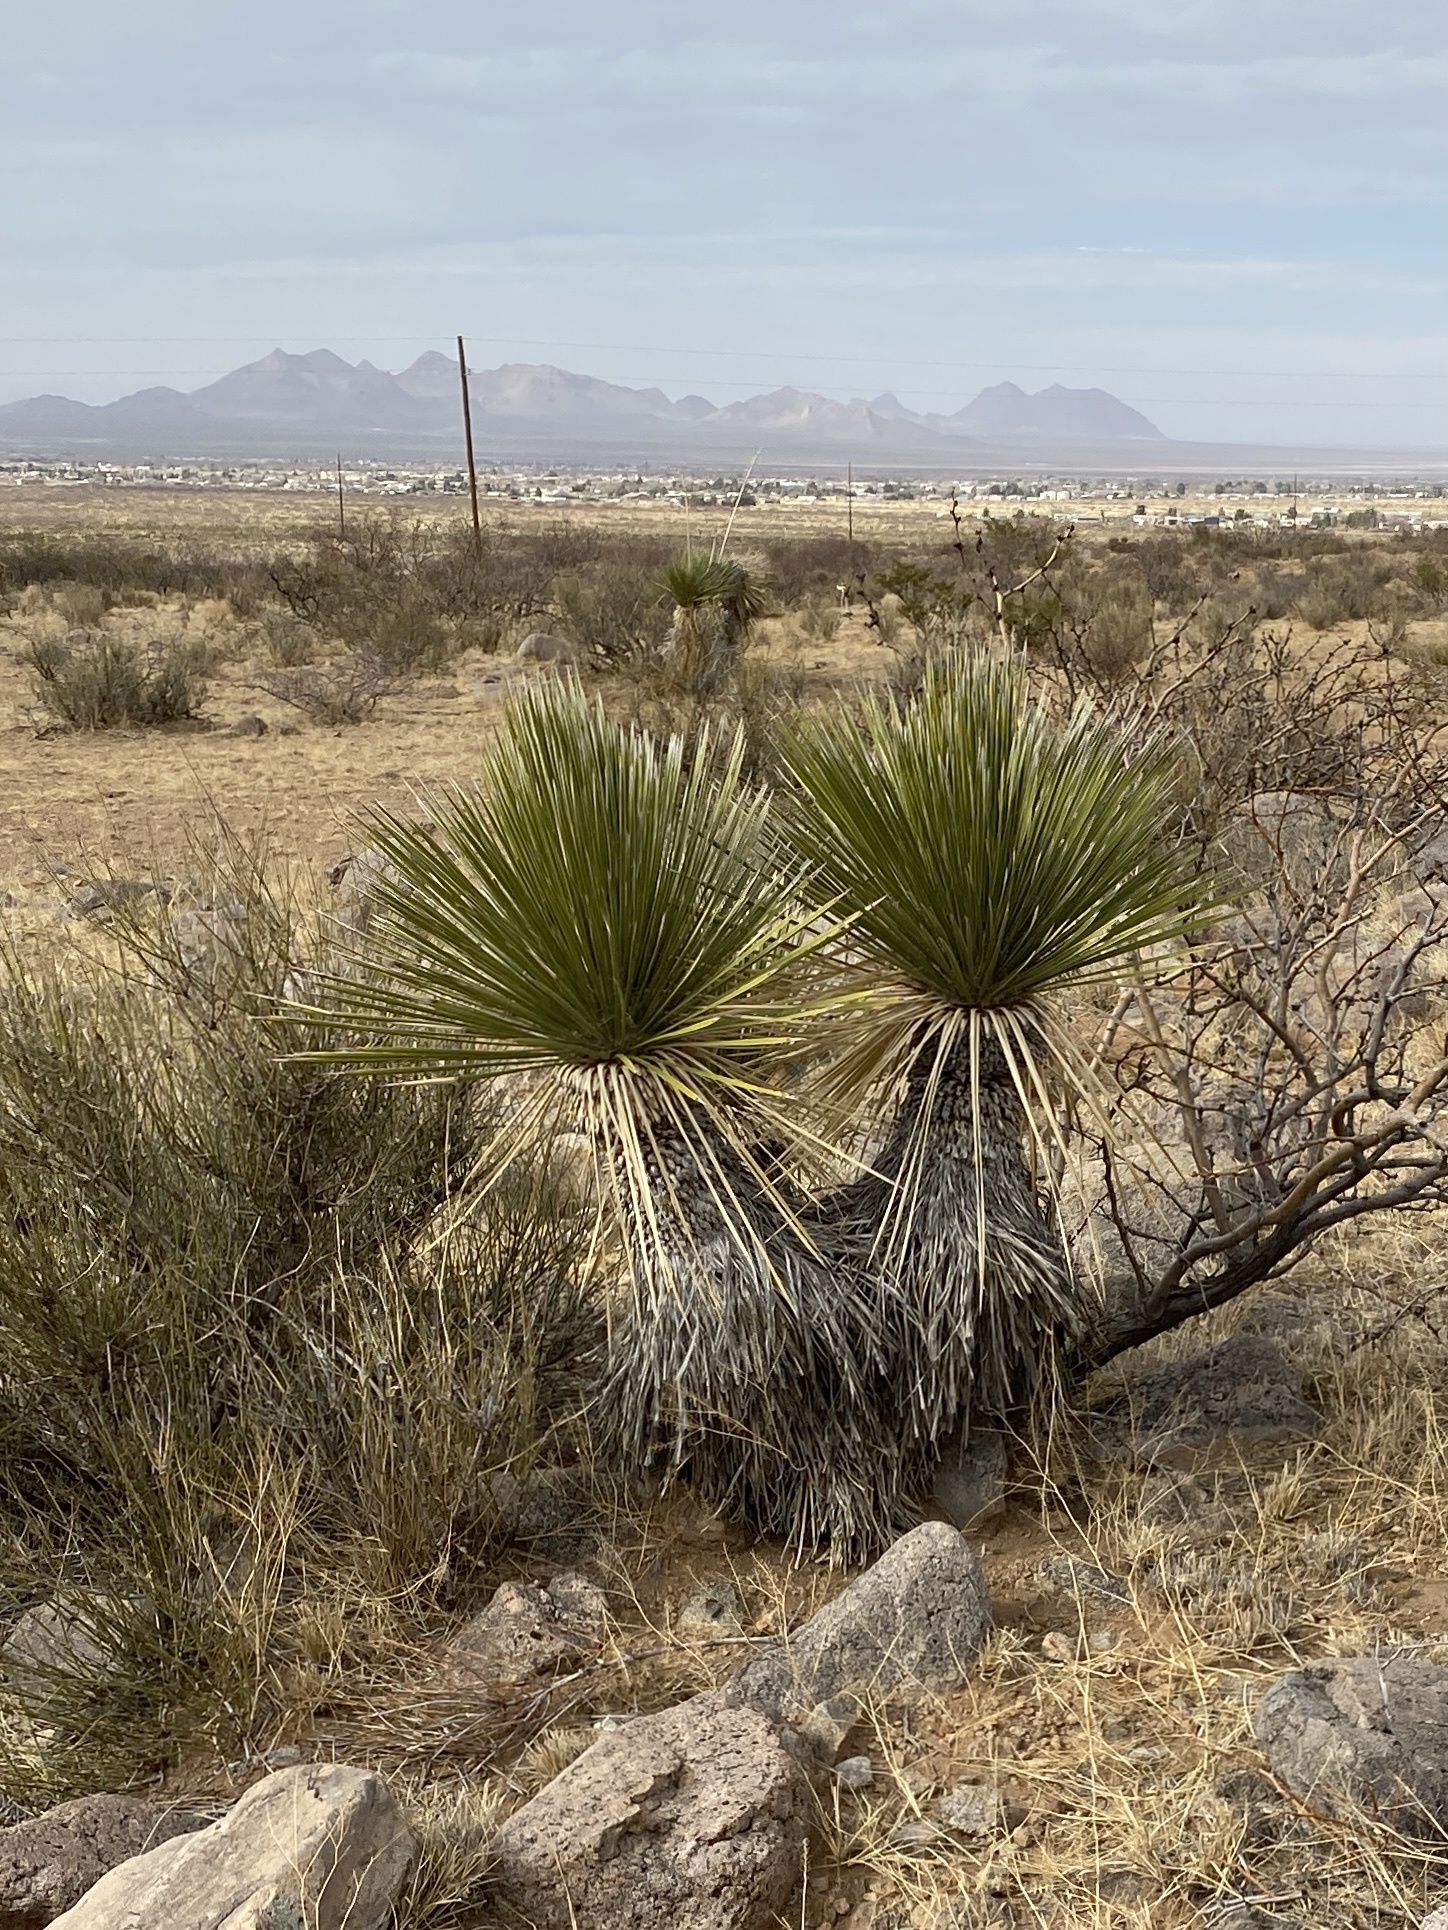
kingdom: Plantae
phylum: Tracheophyta
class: Liliopsida
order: Asparagales
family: Asparagaceae
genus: Yucca
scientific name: Yucca elata
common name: Palmella
